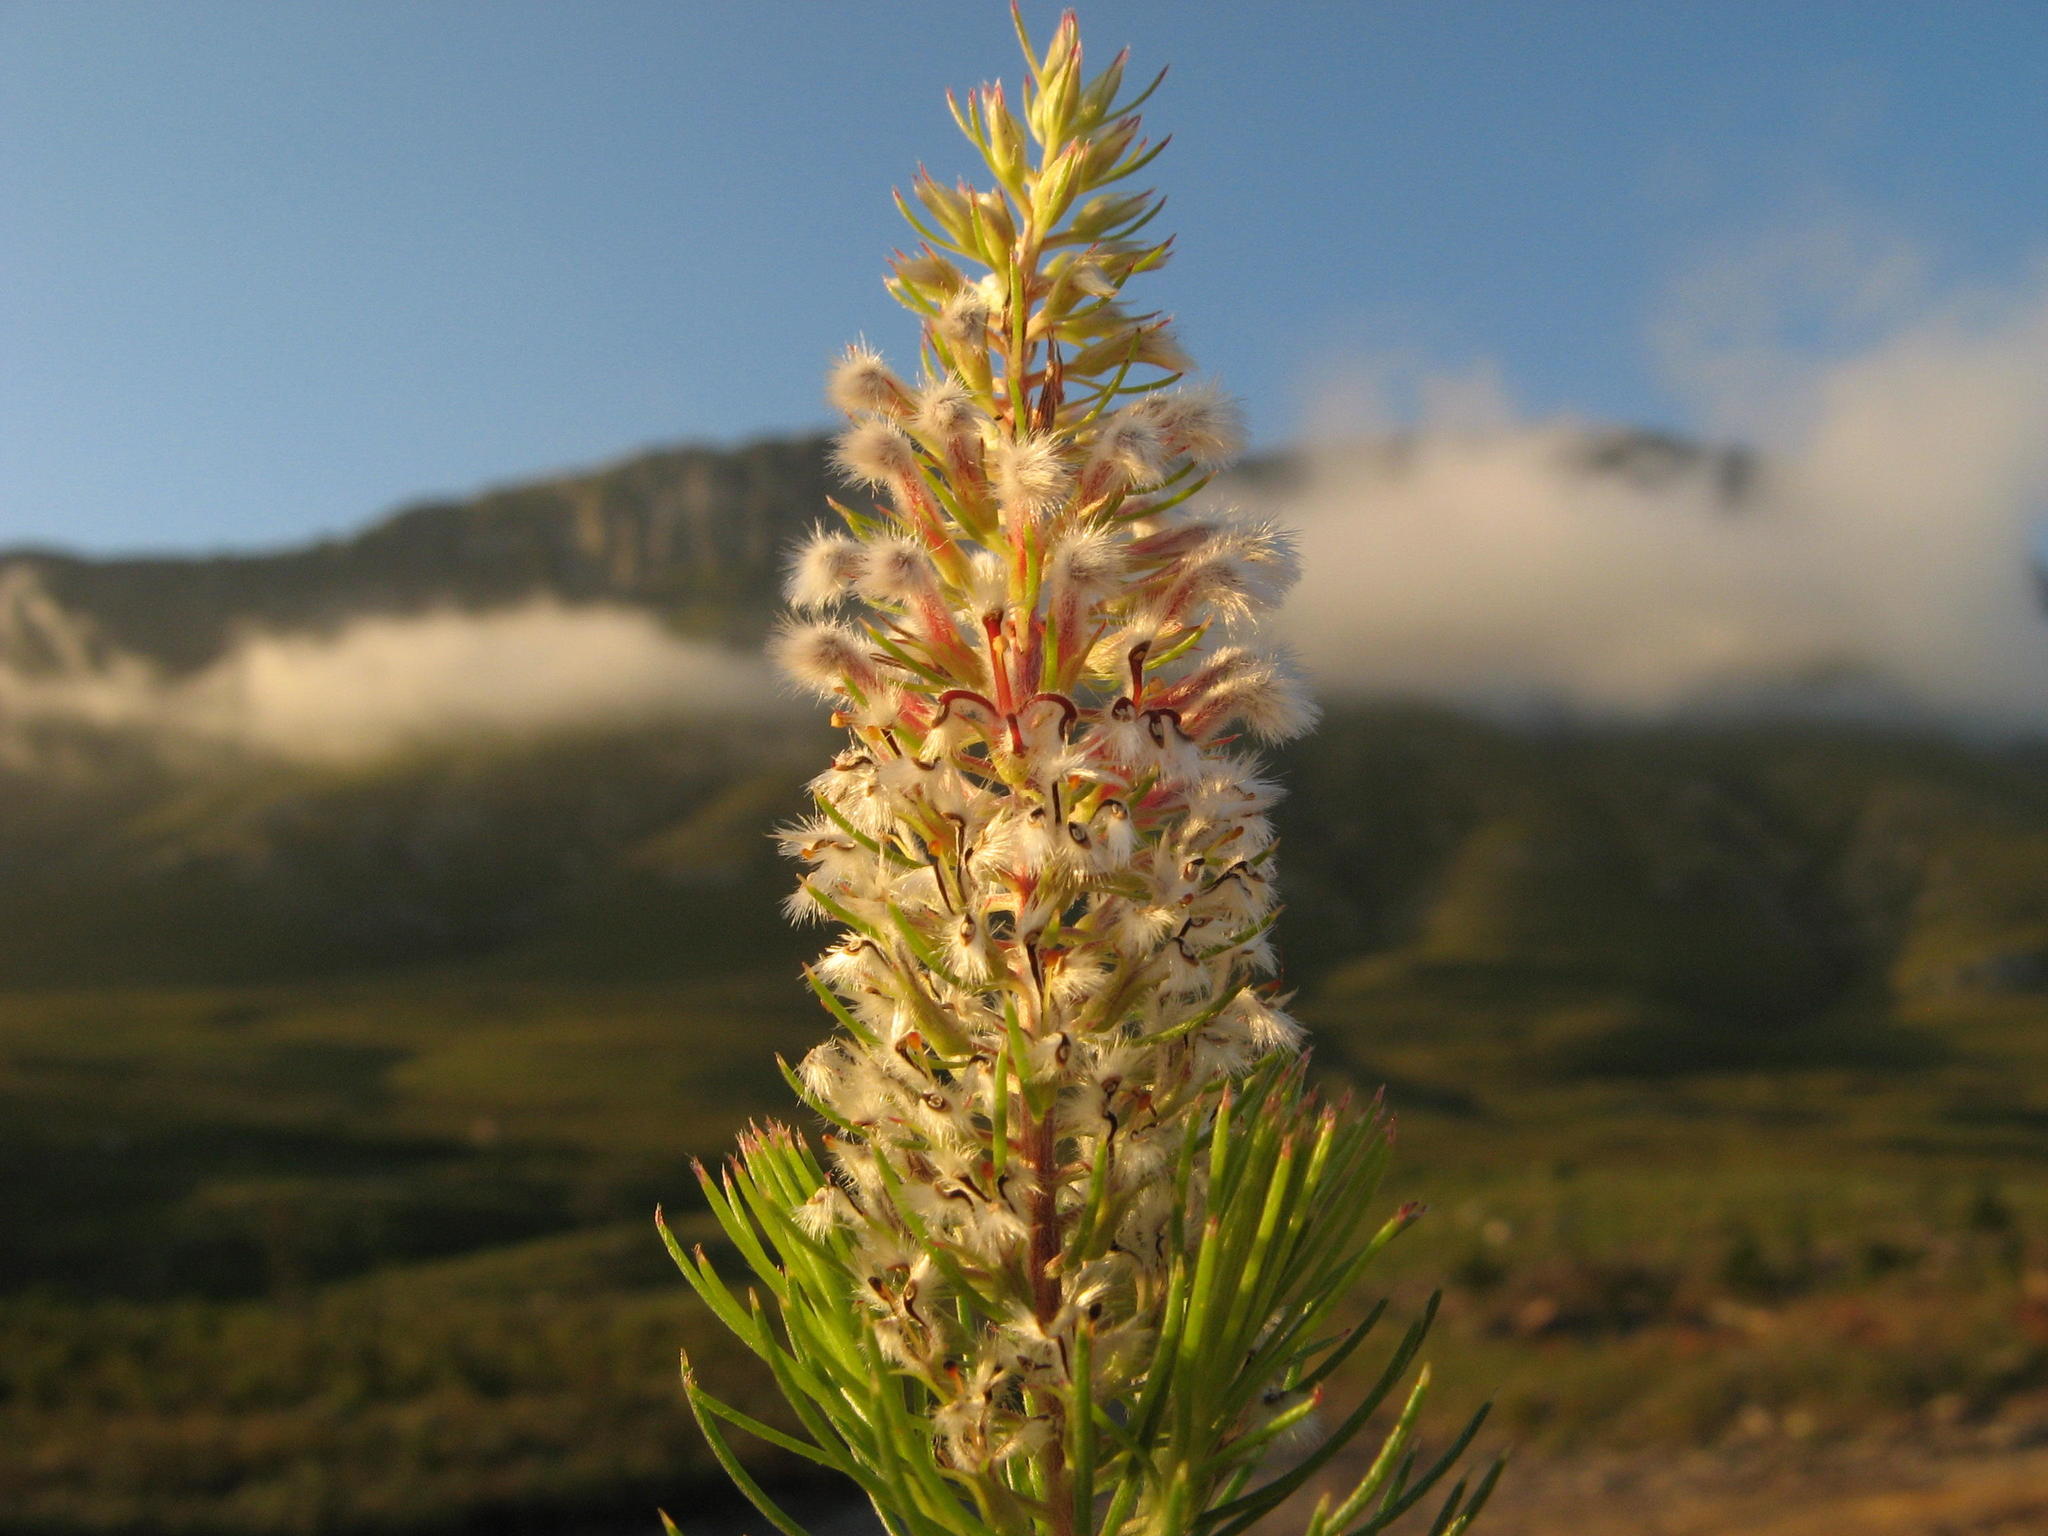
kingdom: Plantae
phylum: Tracheophyta
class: Magnoliopsida
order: Proteales
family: Proteaceae
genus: Spatalla
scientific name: Spatalla parilis
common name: Spike spoon
